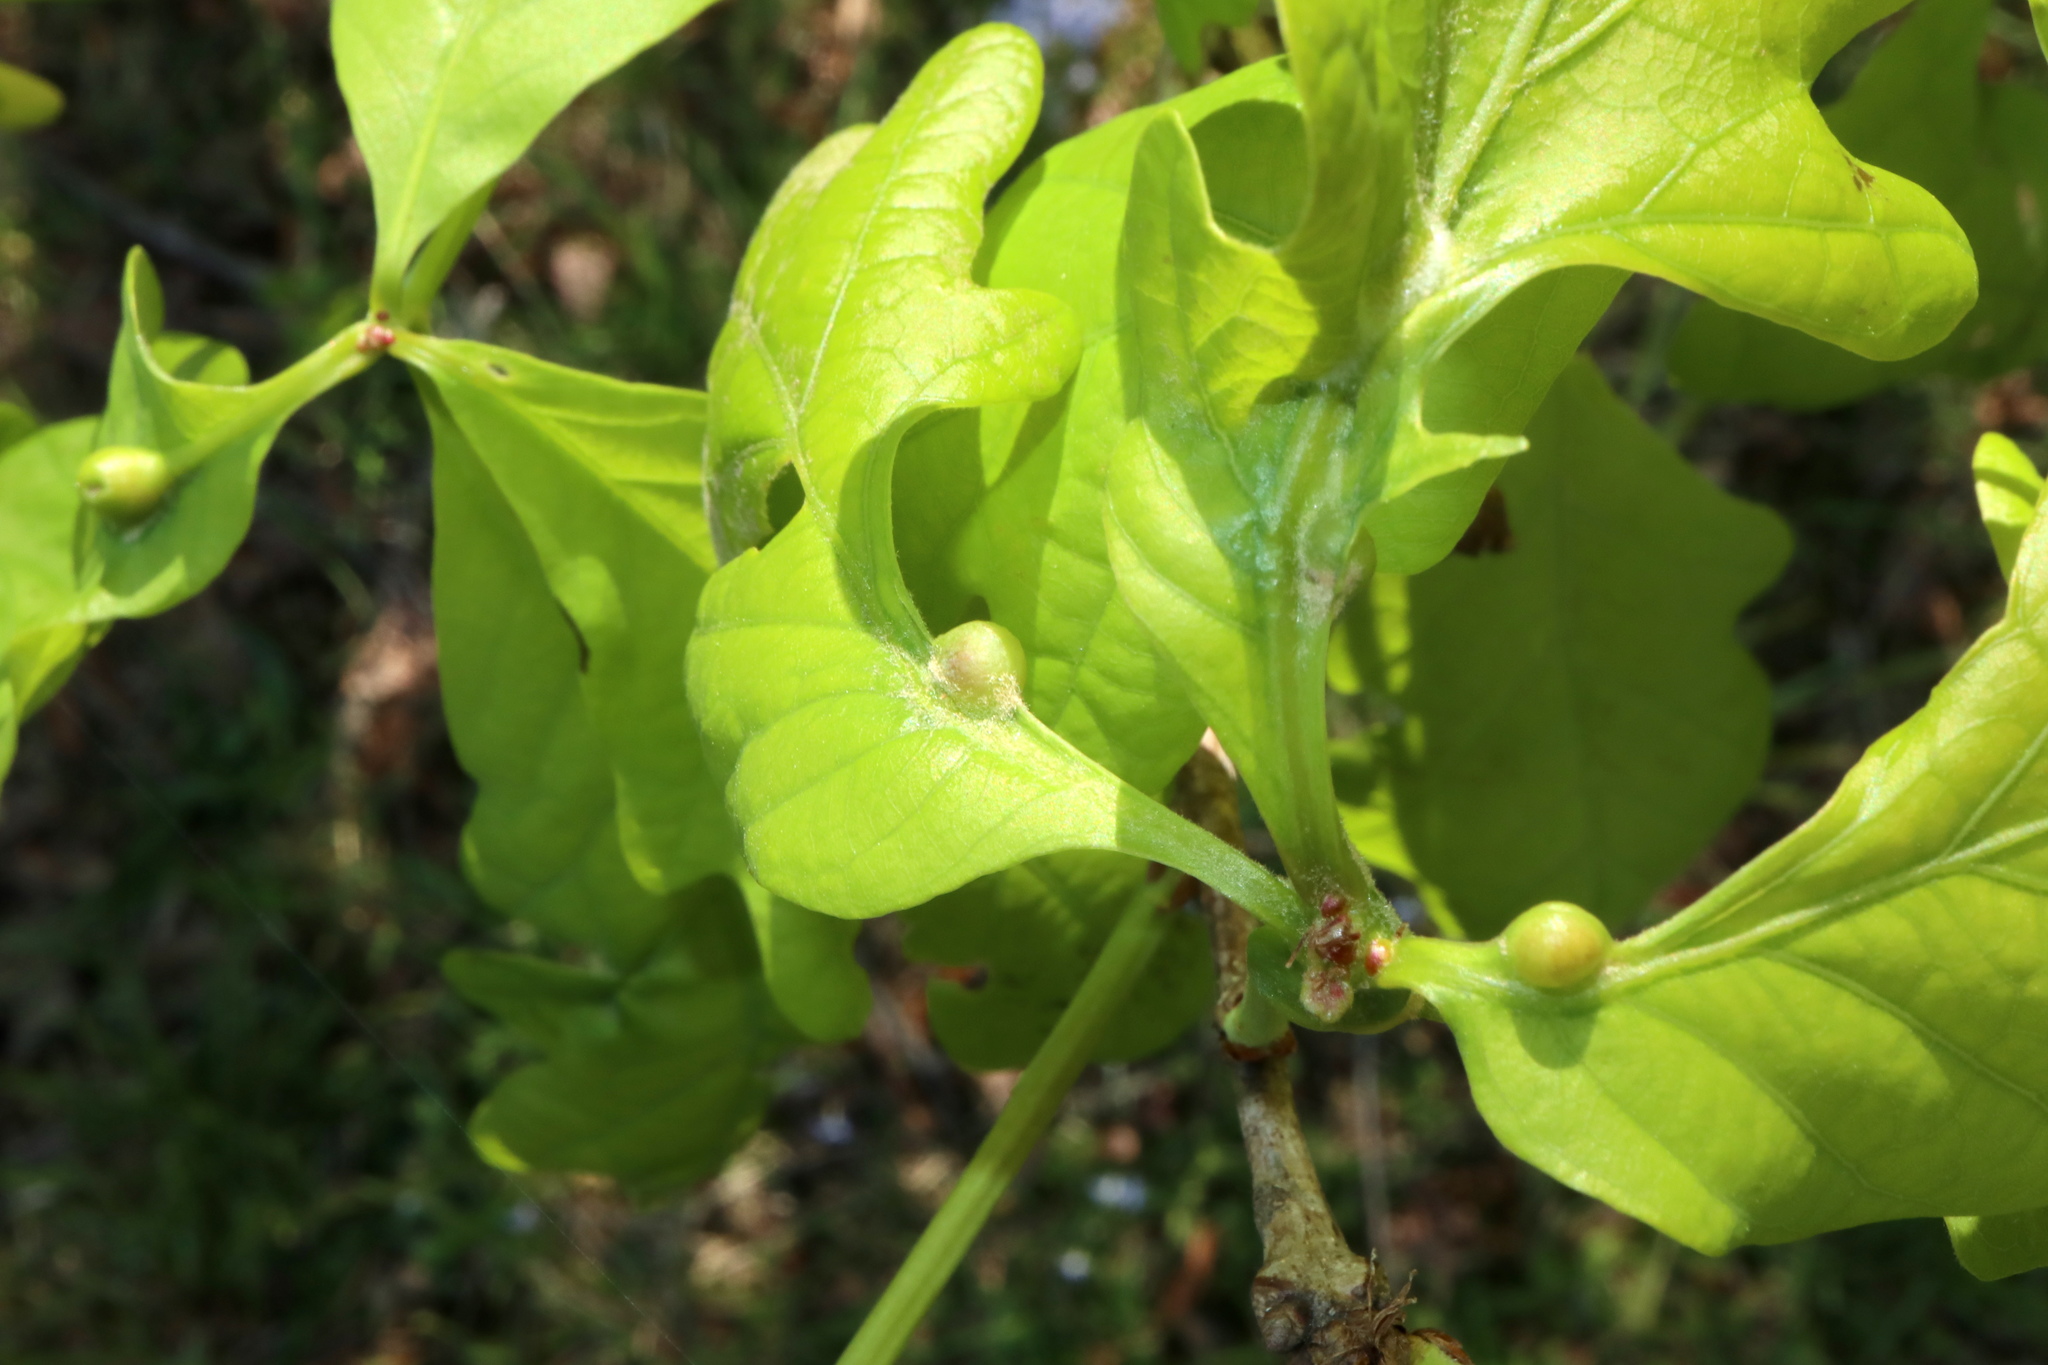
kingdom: Animalia
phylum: Arthropoda
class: Insecta
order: Hymenoptera
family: Cynipidae
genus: Andricus
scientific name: Andricus
